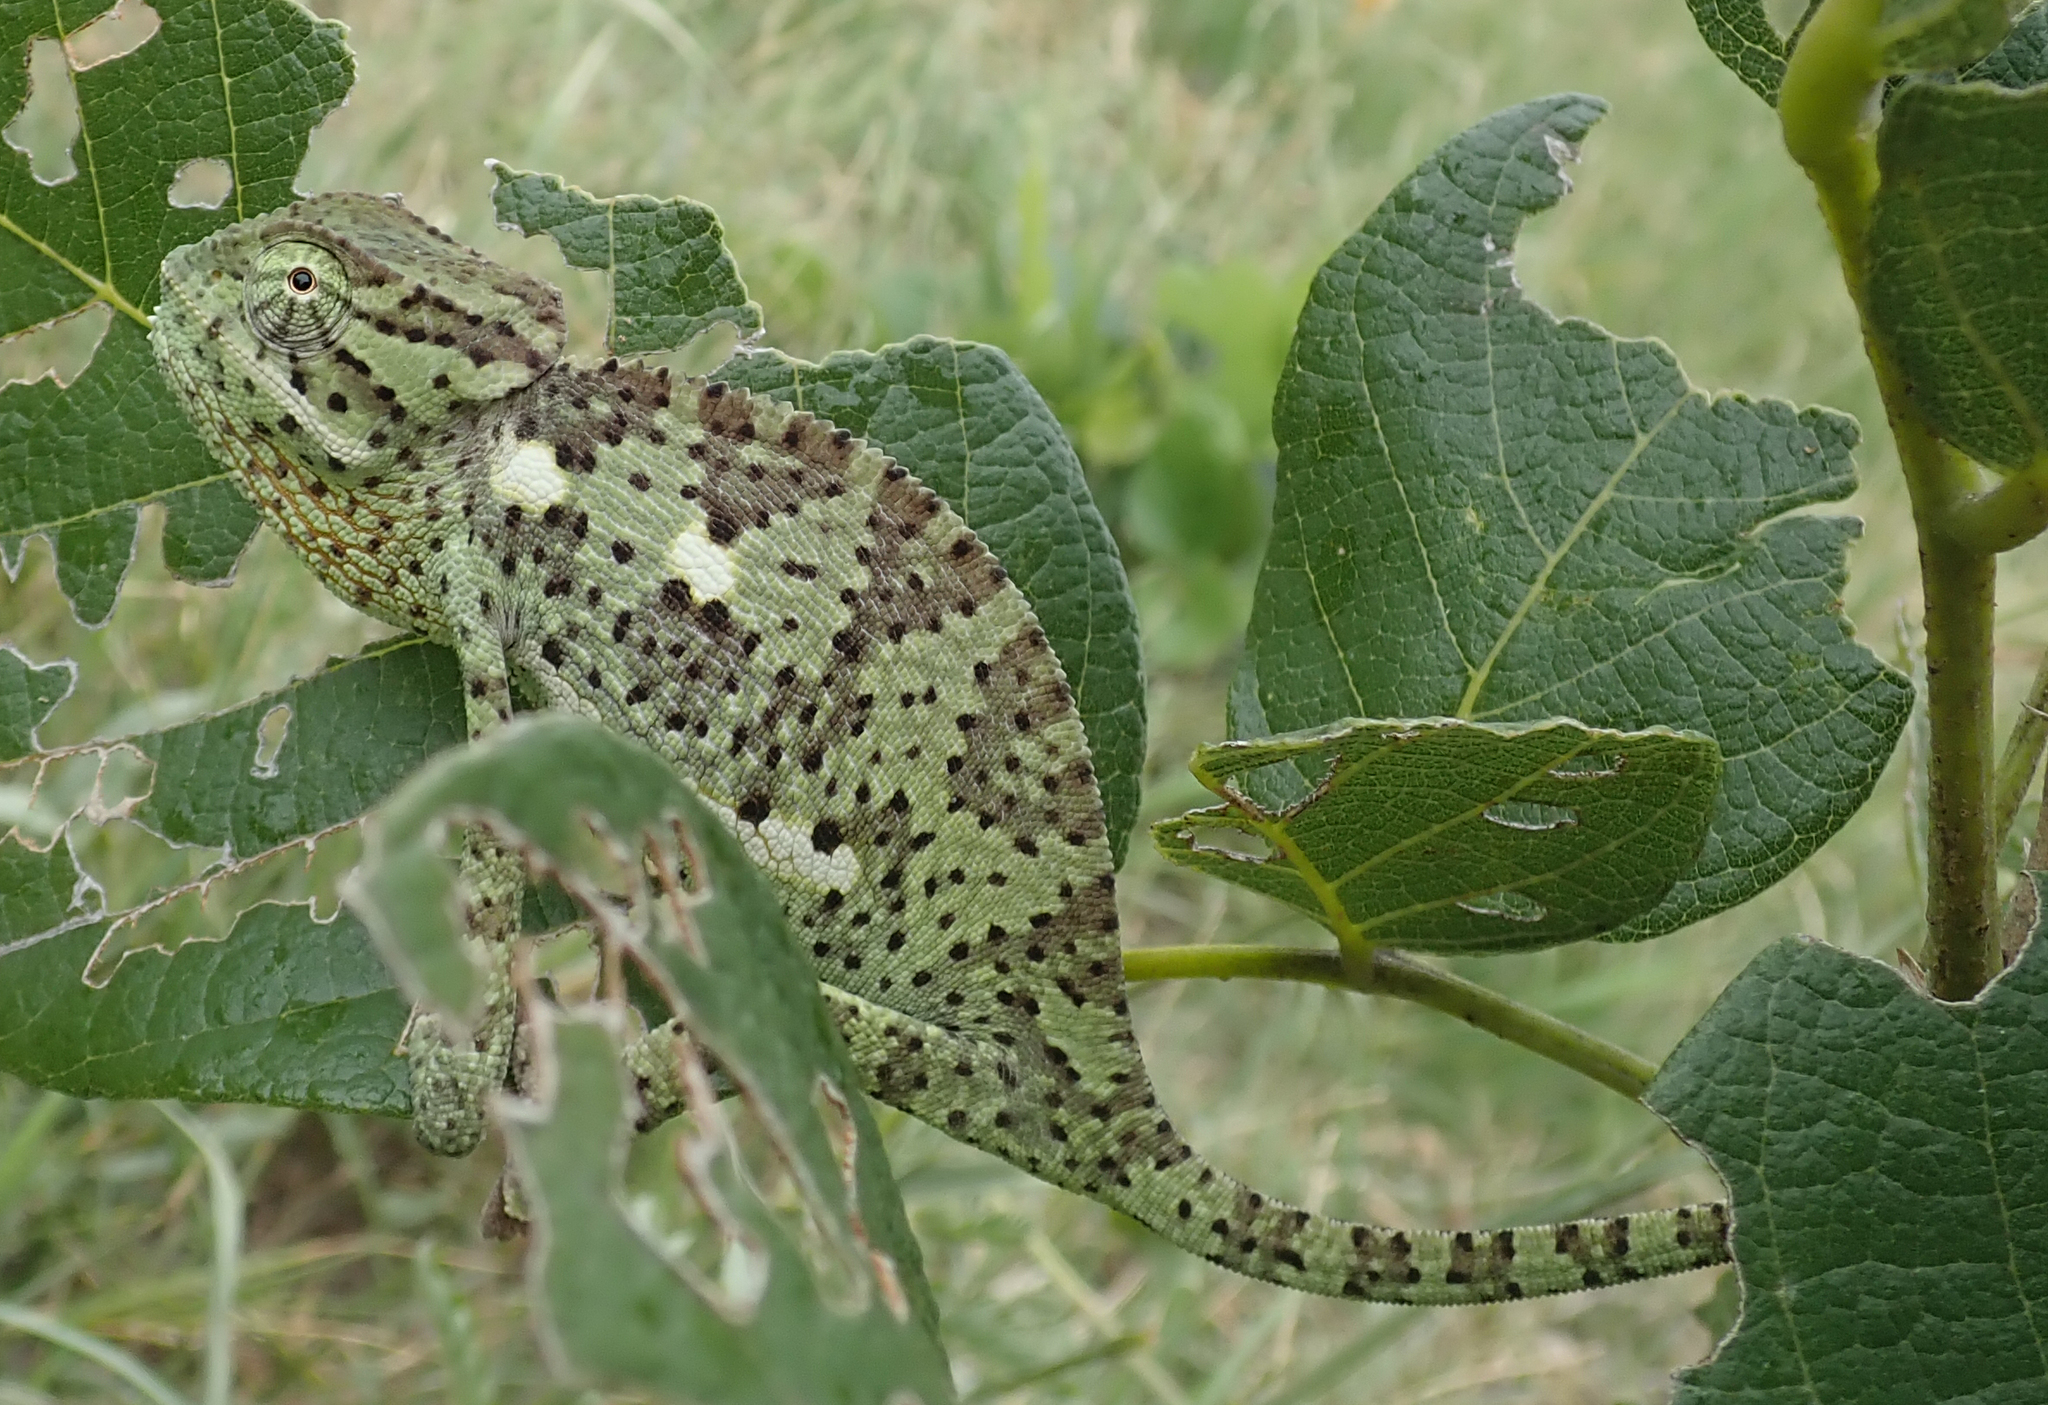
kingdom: Animalia
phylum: Chordata
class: Squamata
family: Chamaeleonidae
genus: Chamaeleo
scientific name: Chamaeleo dilepis
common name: Flapneck chameleon
